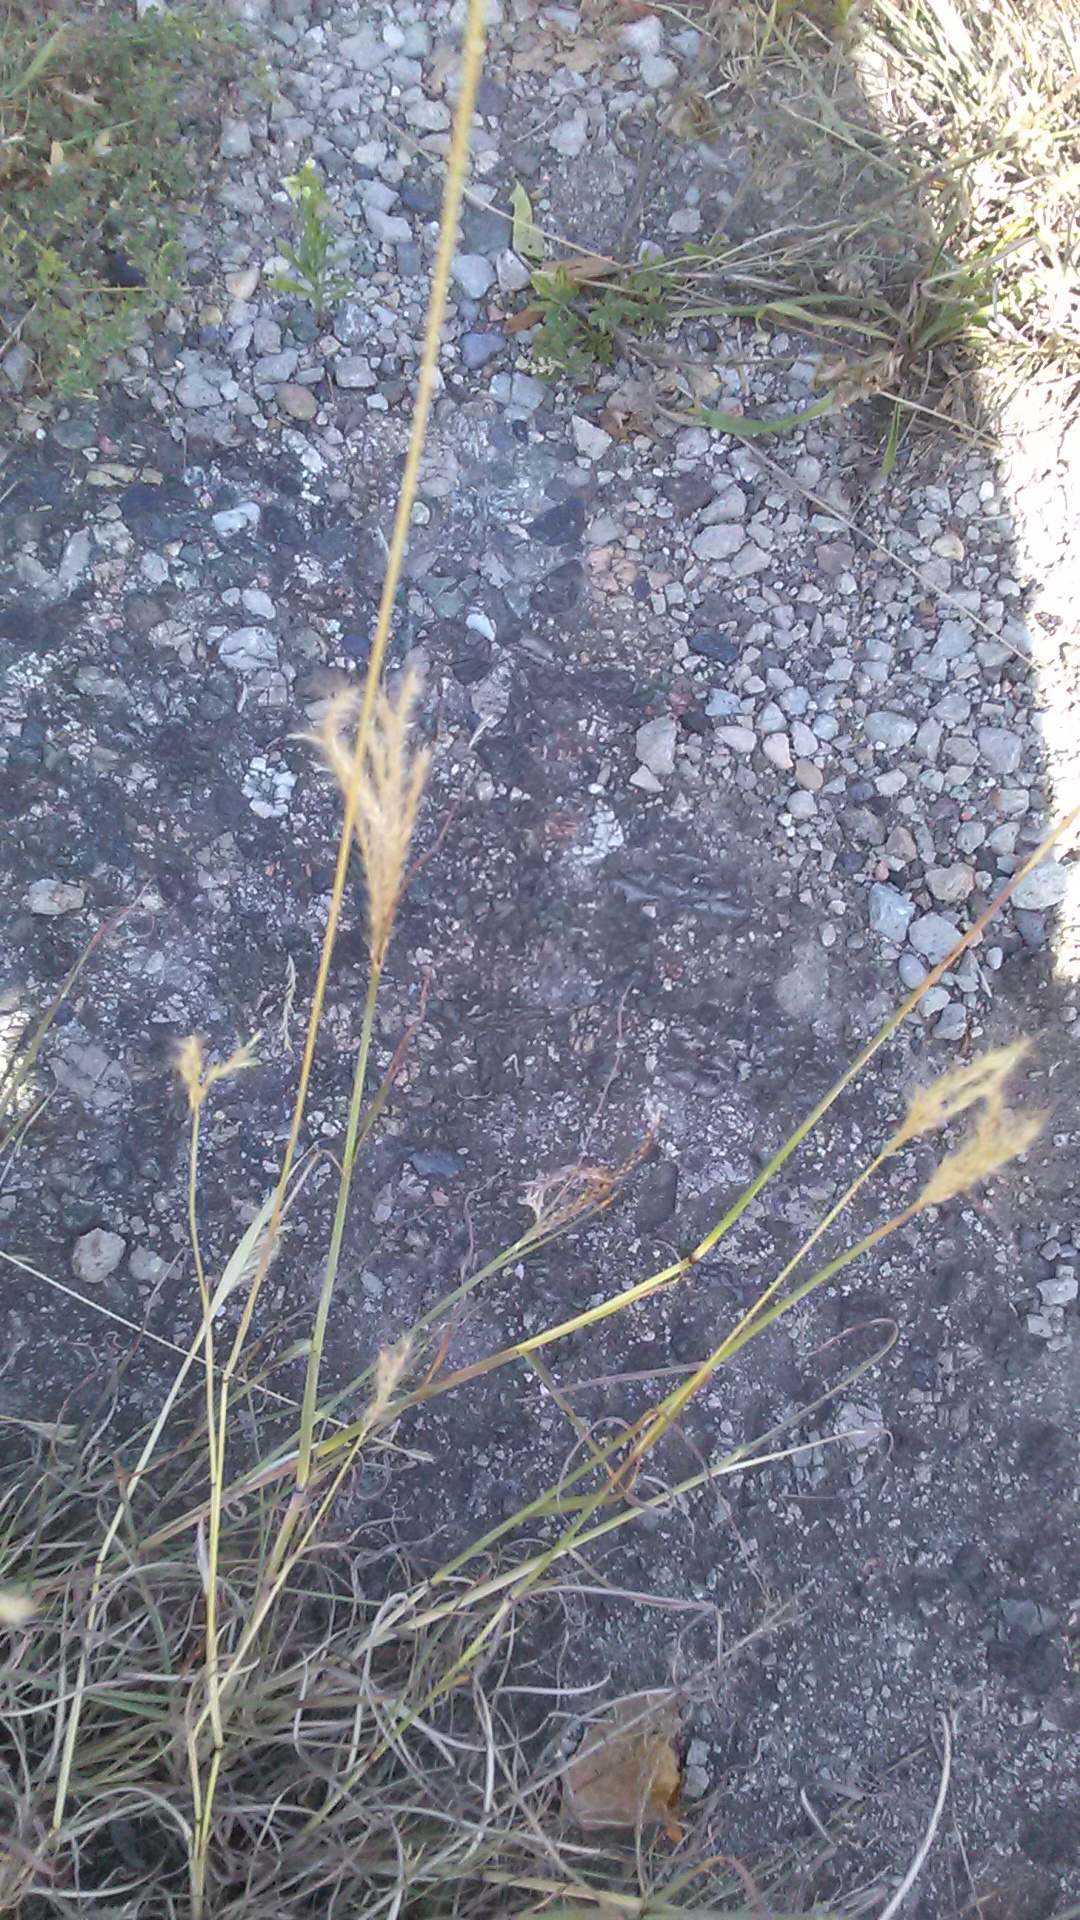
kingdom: Plantae
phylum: Tracheophyta
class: Liliopsida
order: Poales
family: Poaceae
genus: Bothriochloa
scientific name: Bothriochloa ischaemum
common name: Yellow bluestem
